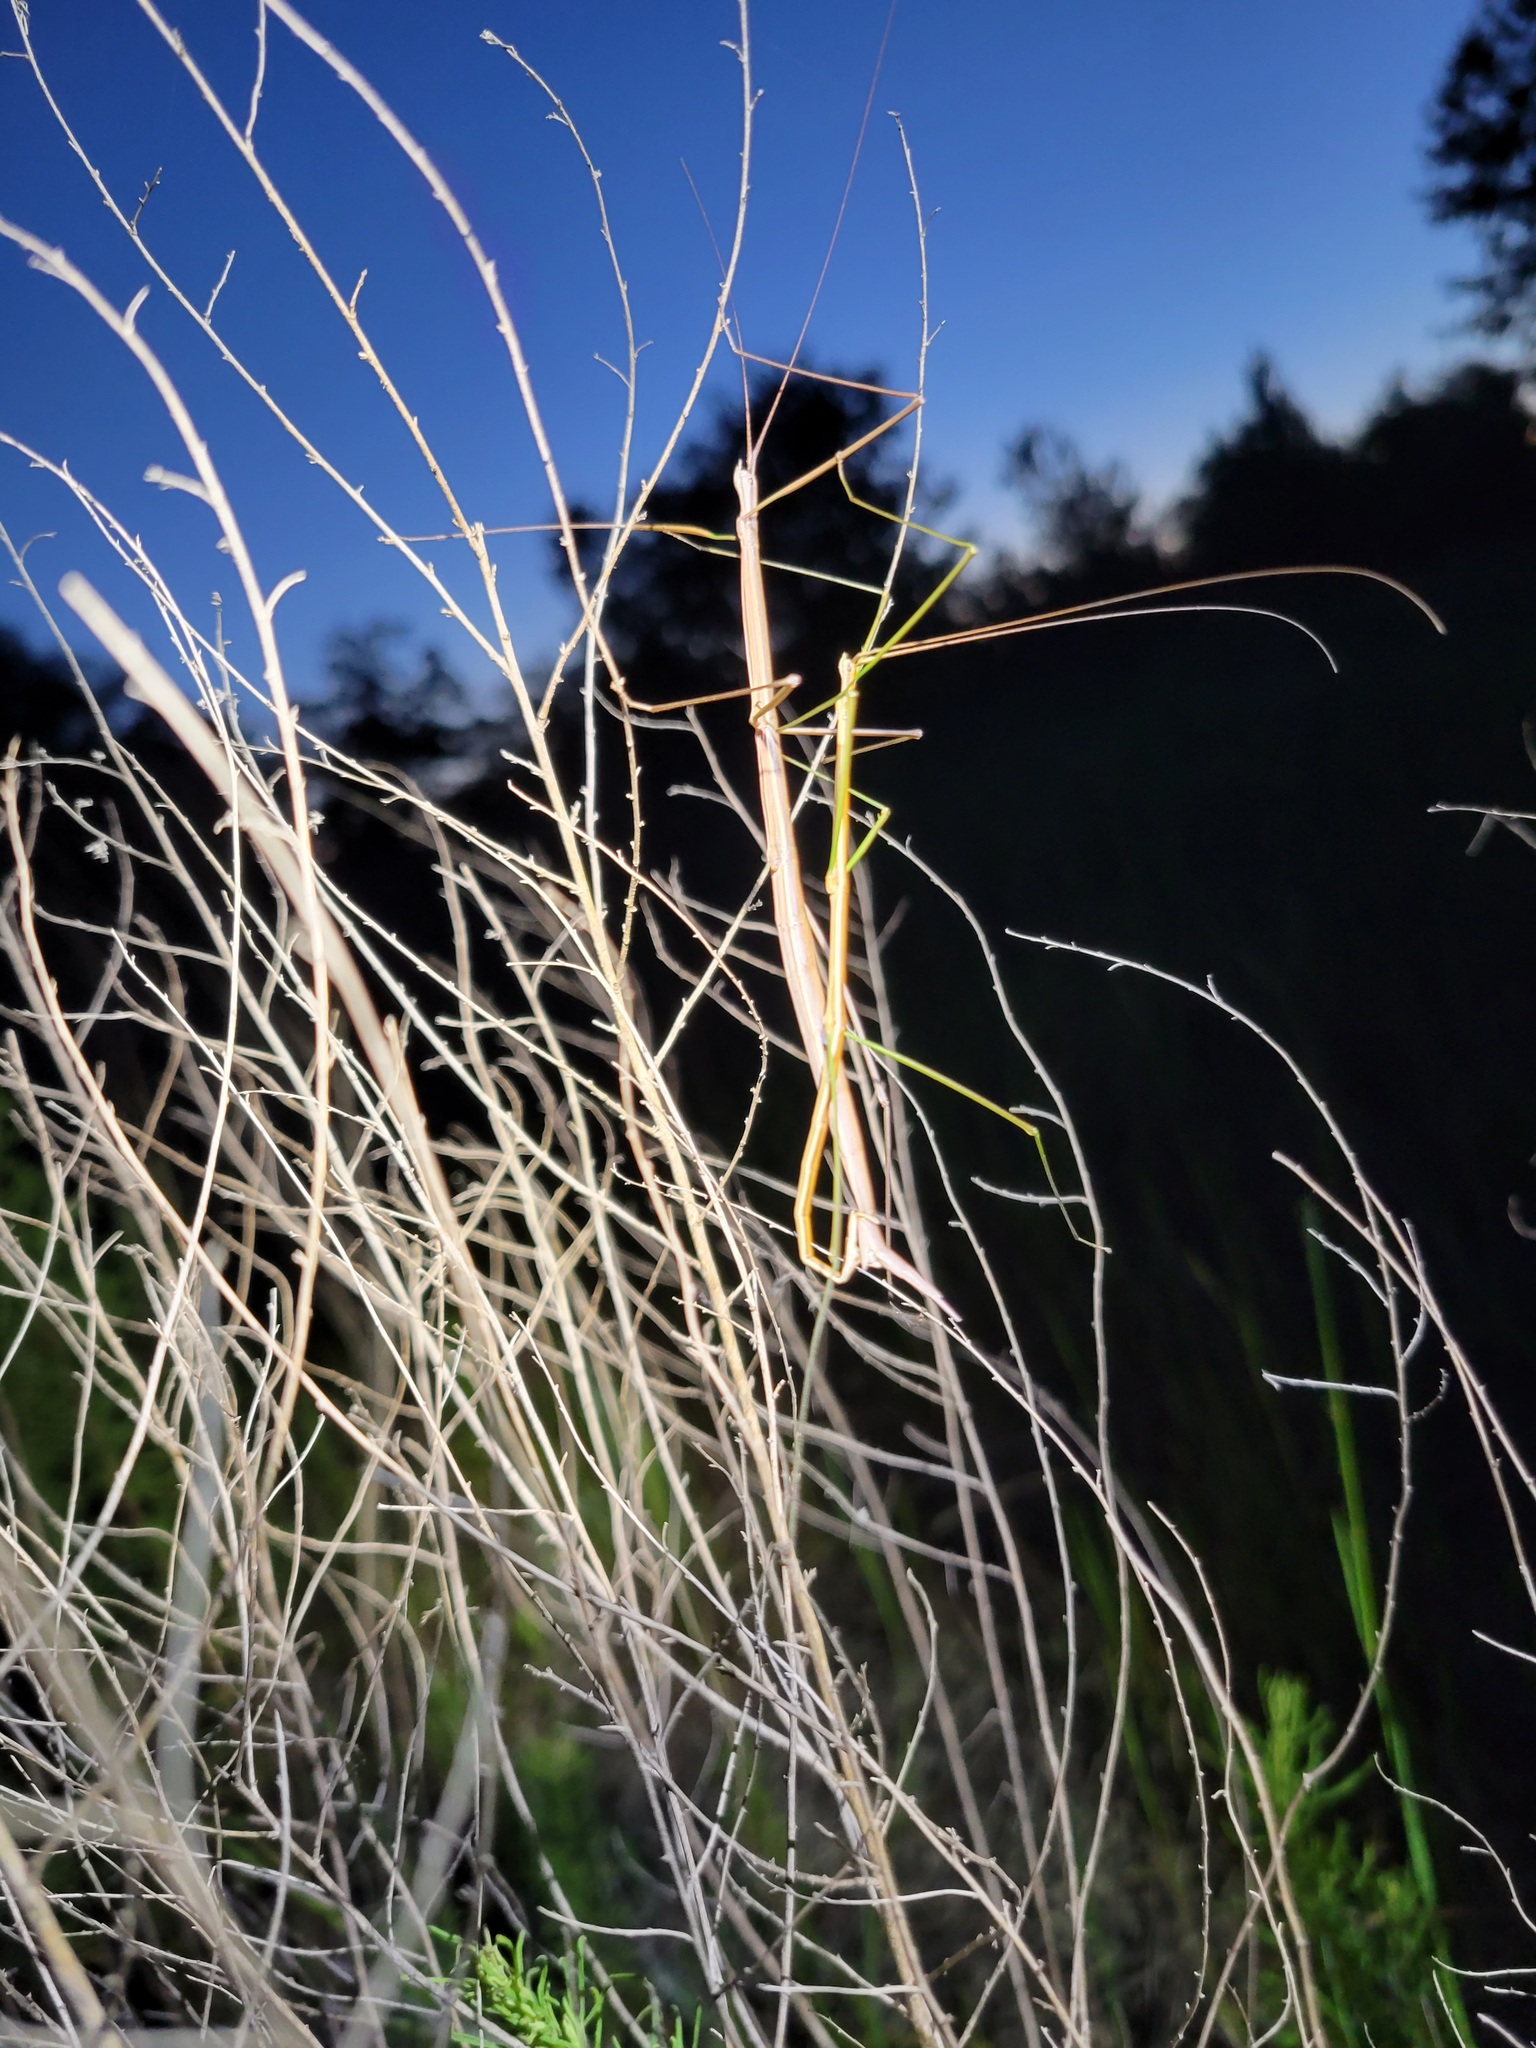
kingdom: Animalia
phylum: Arthropoda
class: Insecta
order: Phasmida
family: Diapheromeridae
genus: Manomera
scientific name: Manomera tenuescens
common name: Slender-bodied walkingstick
